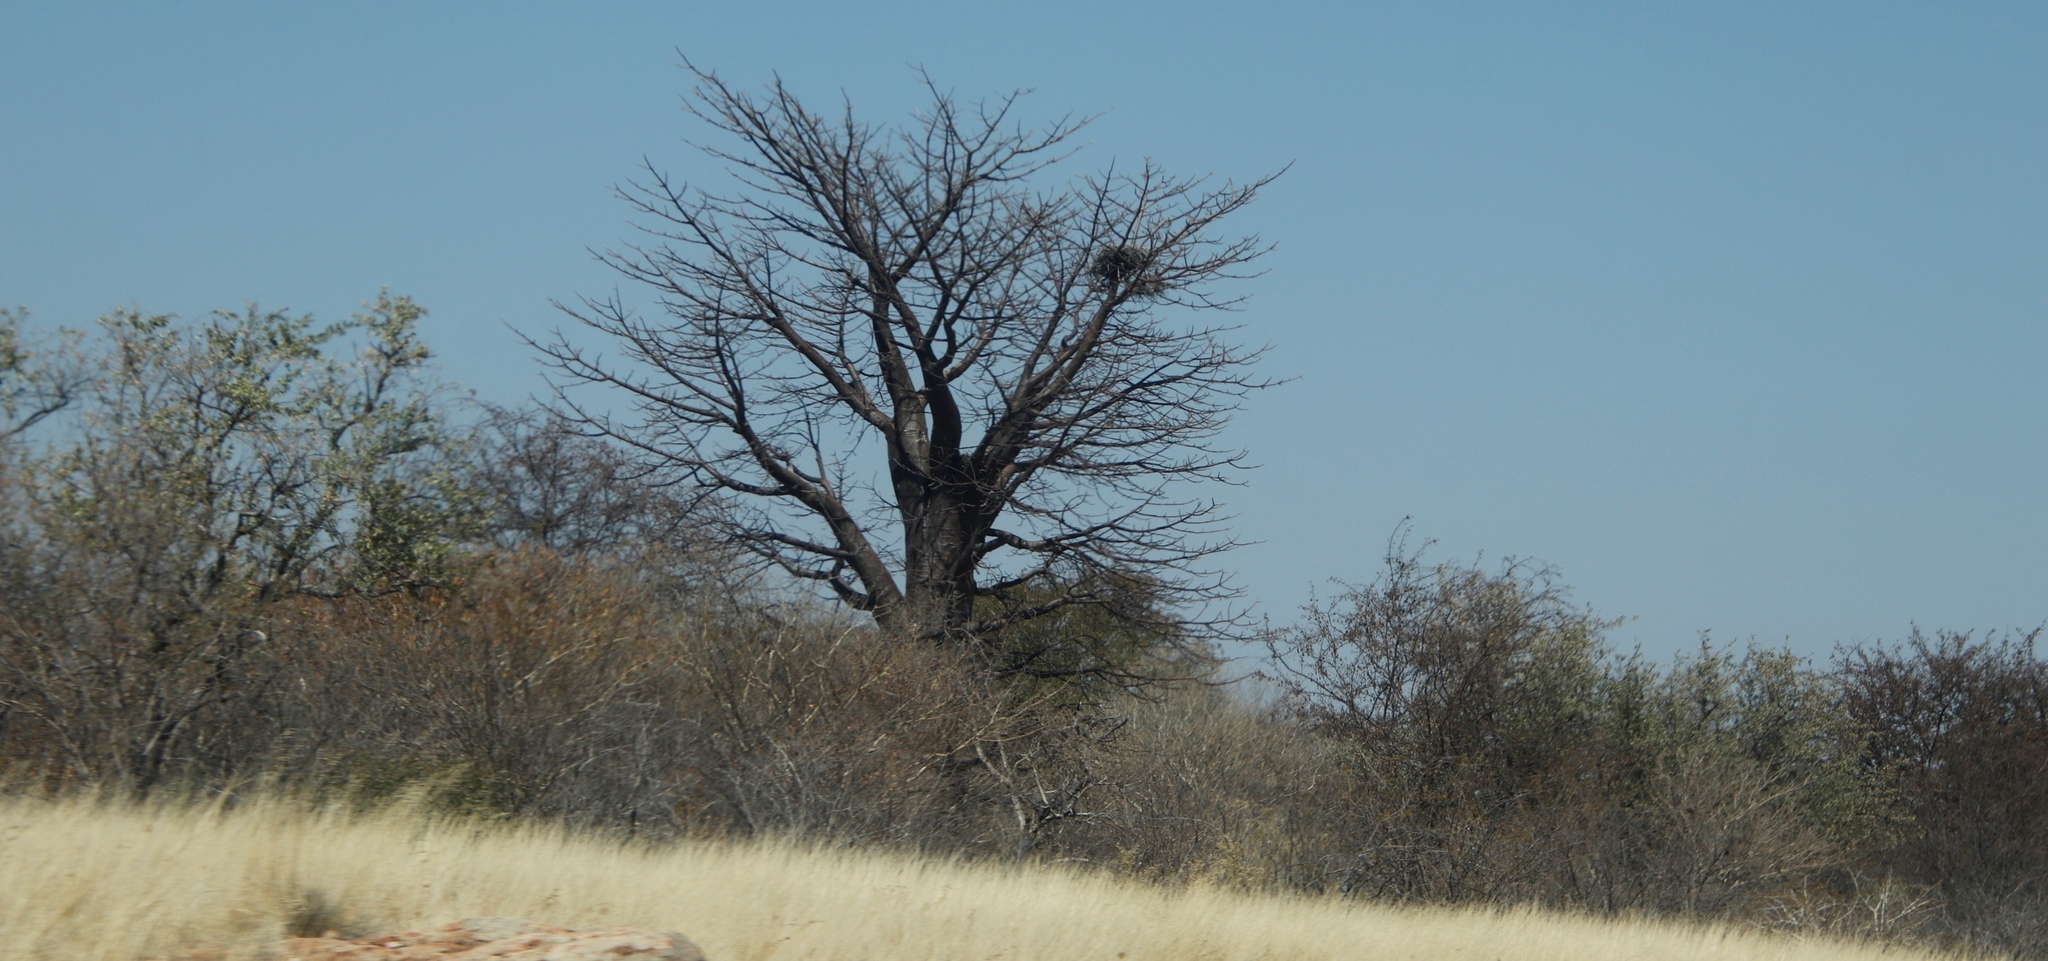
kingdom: Plantae
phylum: Tracheophyta
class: Magnoliopsida
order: Malvales
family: Malvaceae
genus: Adansonia
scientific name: Adansonia digitata
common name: Dead-rat-tree
